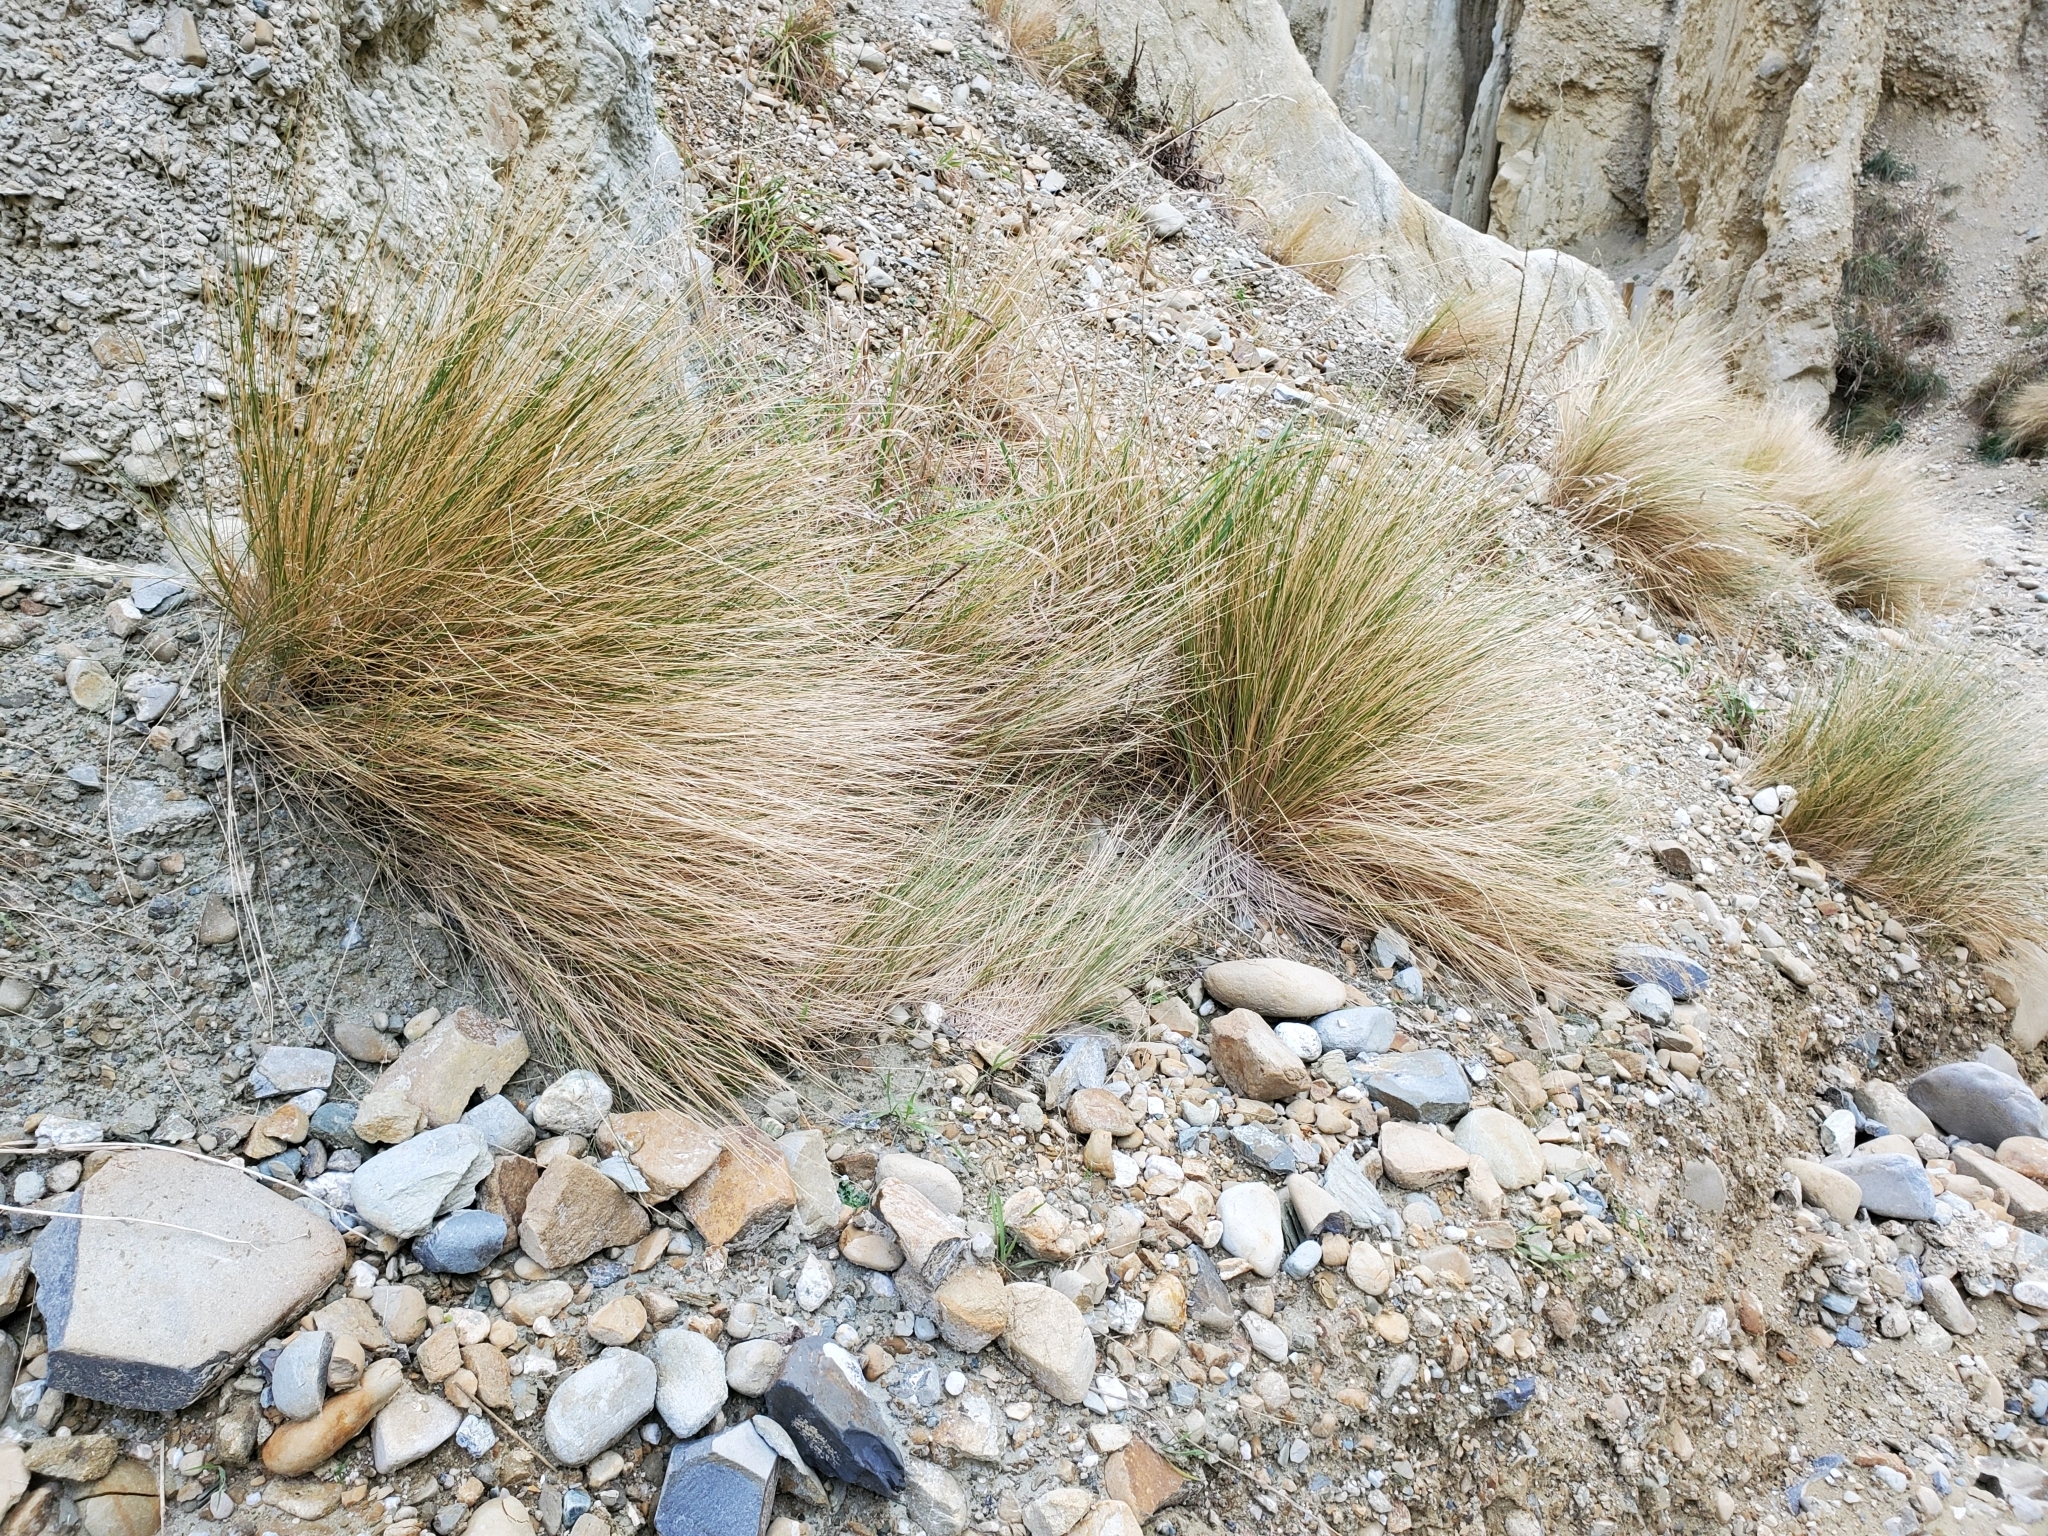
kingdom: Plantae
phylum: Tracheophyta
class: Liliopsida
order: Poales
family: Poaceae
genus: Poa
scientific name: Poa cita
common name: Silver tussock
